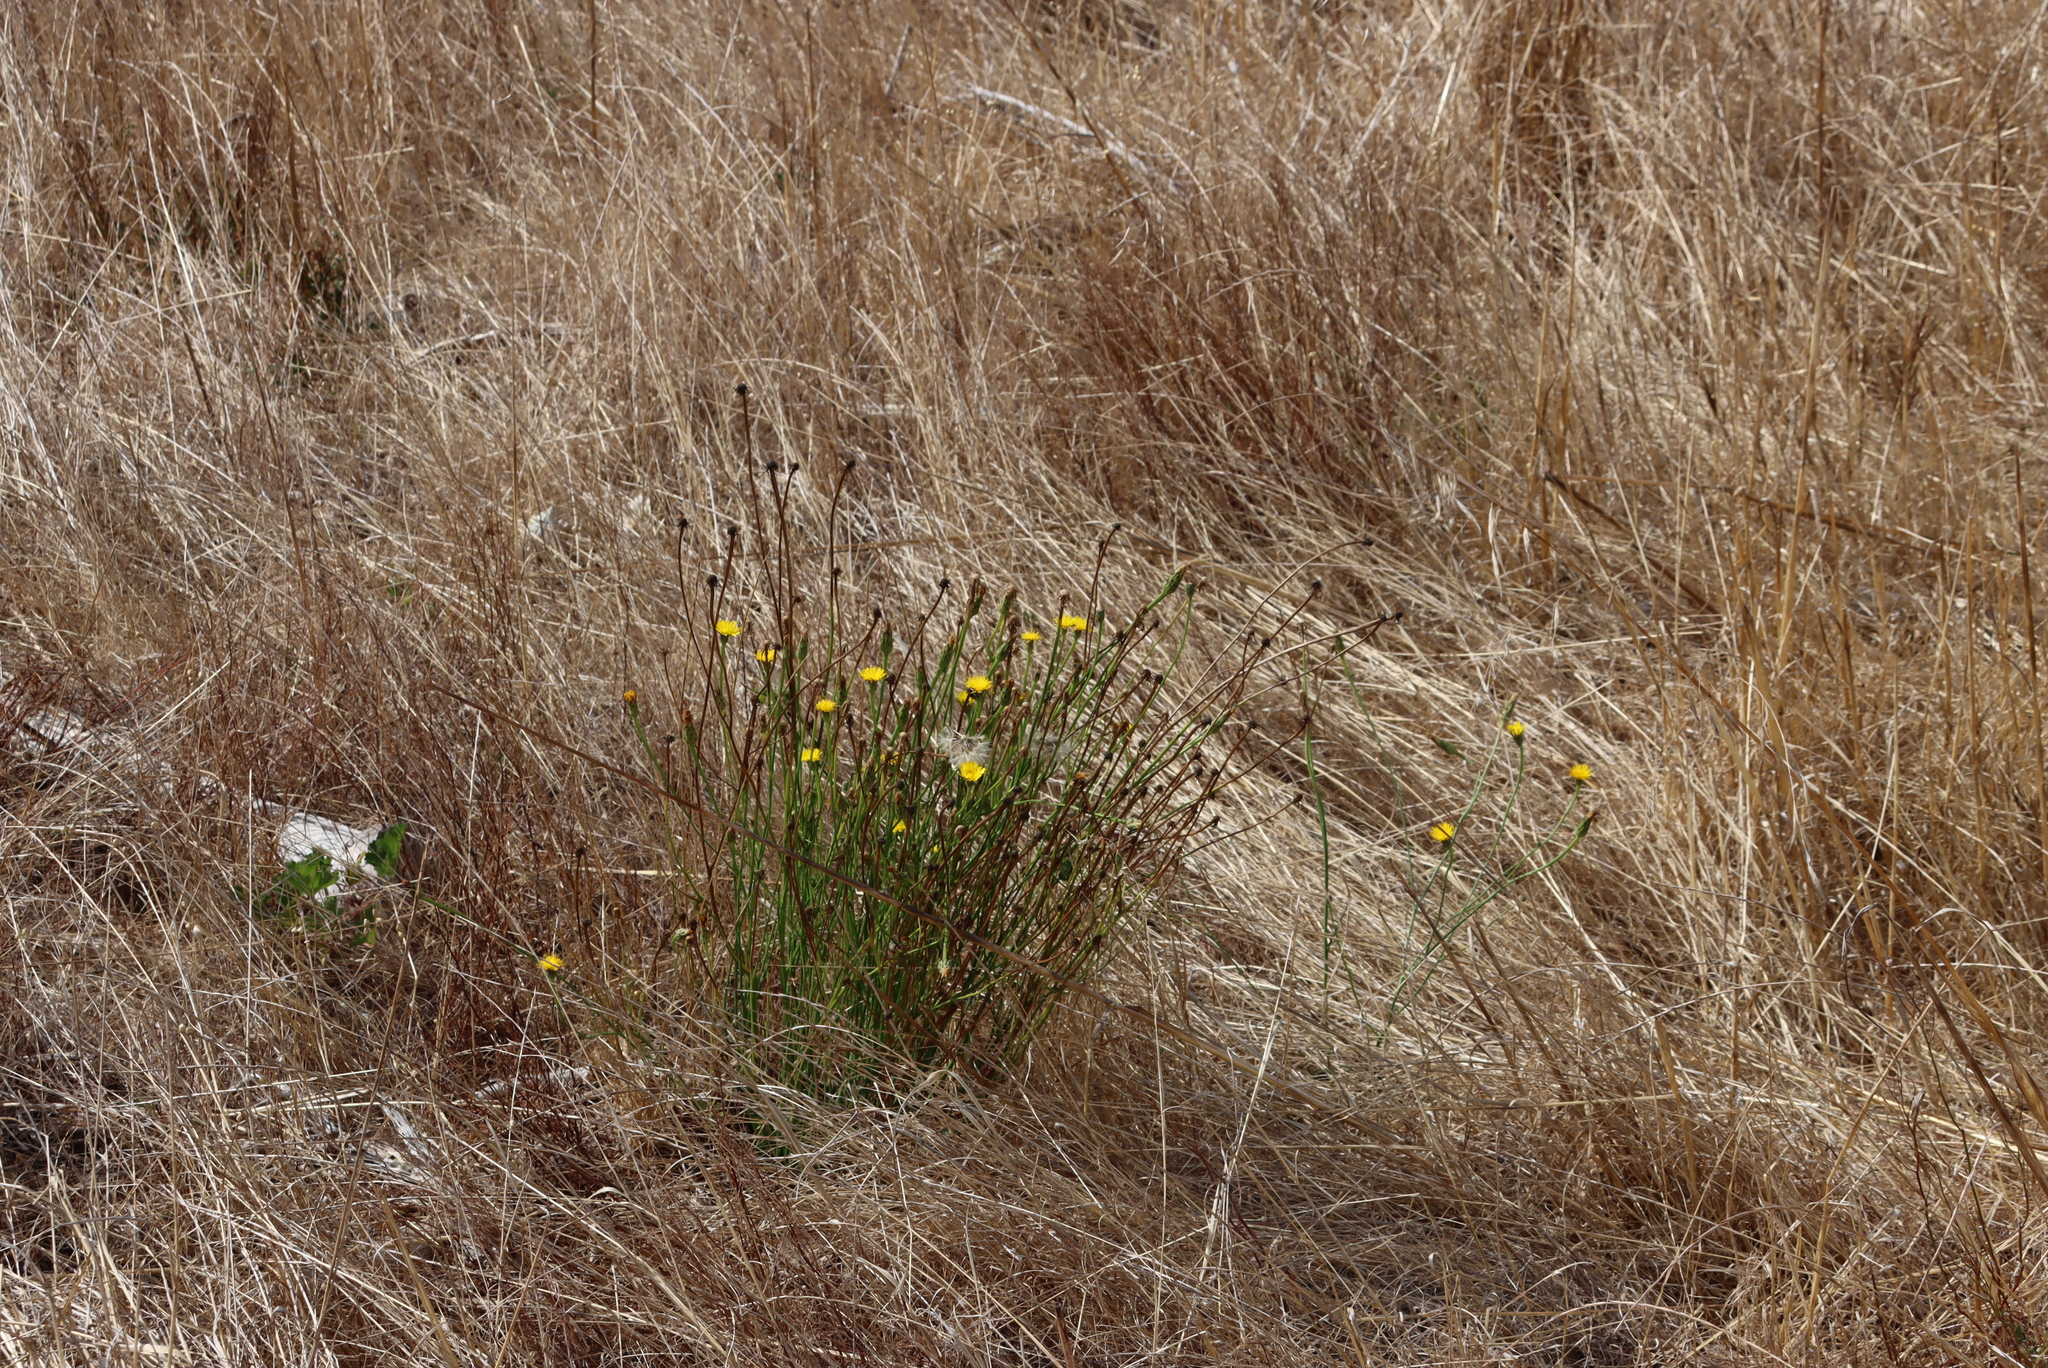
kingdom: Plantae
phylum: Tracheophyta
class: Magnoliopsida
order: Asterales
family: Asteraceae
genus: Hypochaeris
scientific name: Hypochaeris radicata
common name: Flatweed
